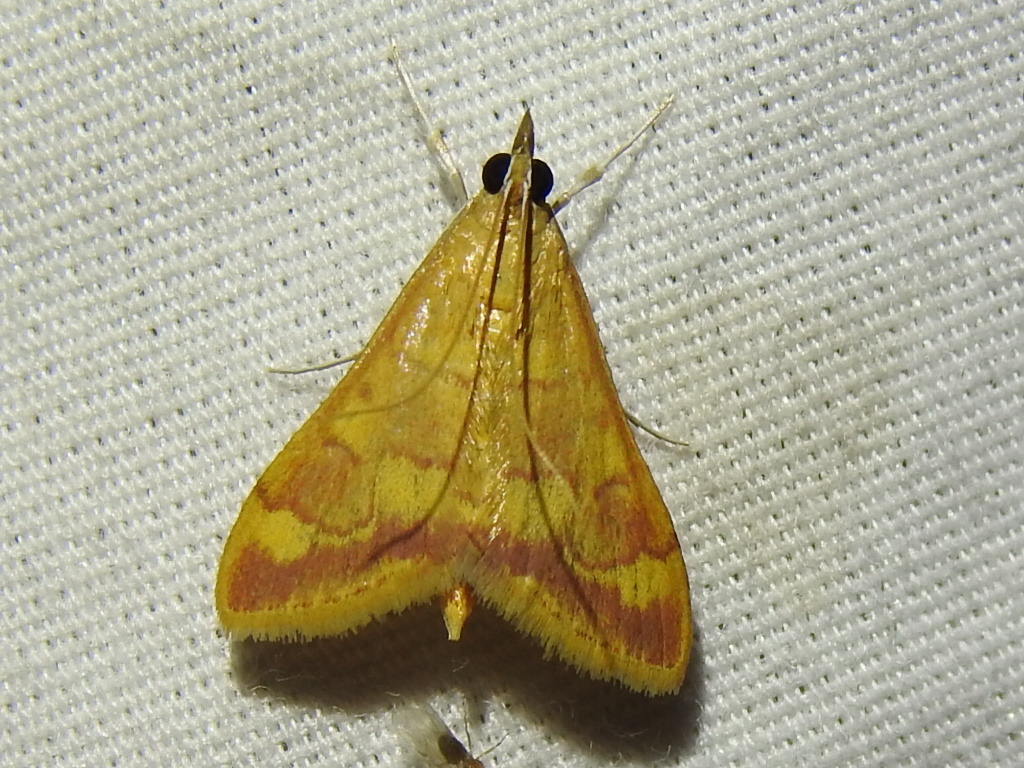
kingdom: Animalia
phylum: Arthropoda
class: Insecta
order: Lepidoptera
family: Crambidae
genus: Pyrausta
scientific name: Pyrausta pseudonythesalis
